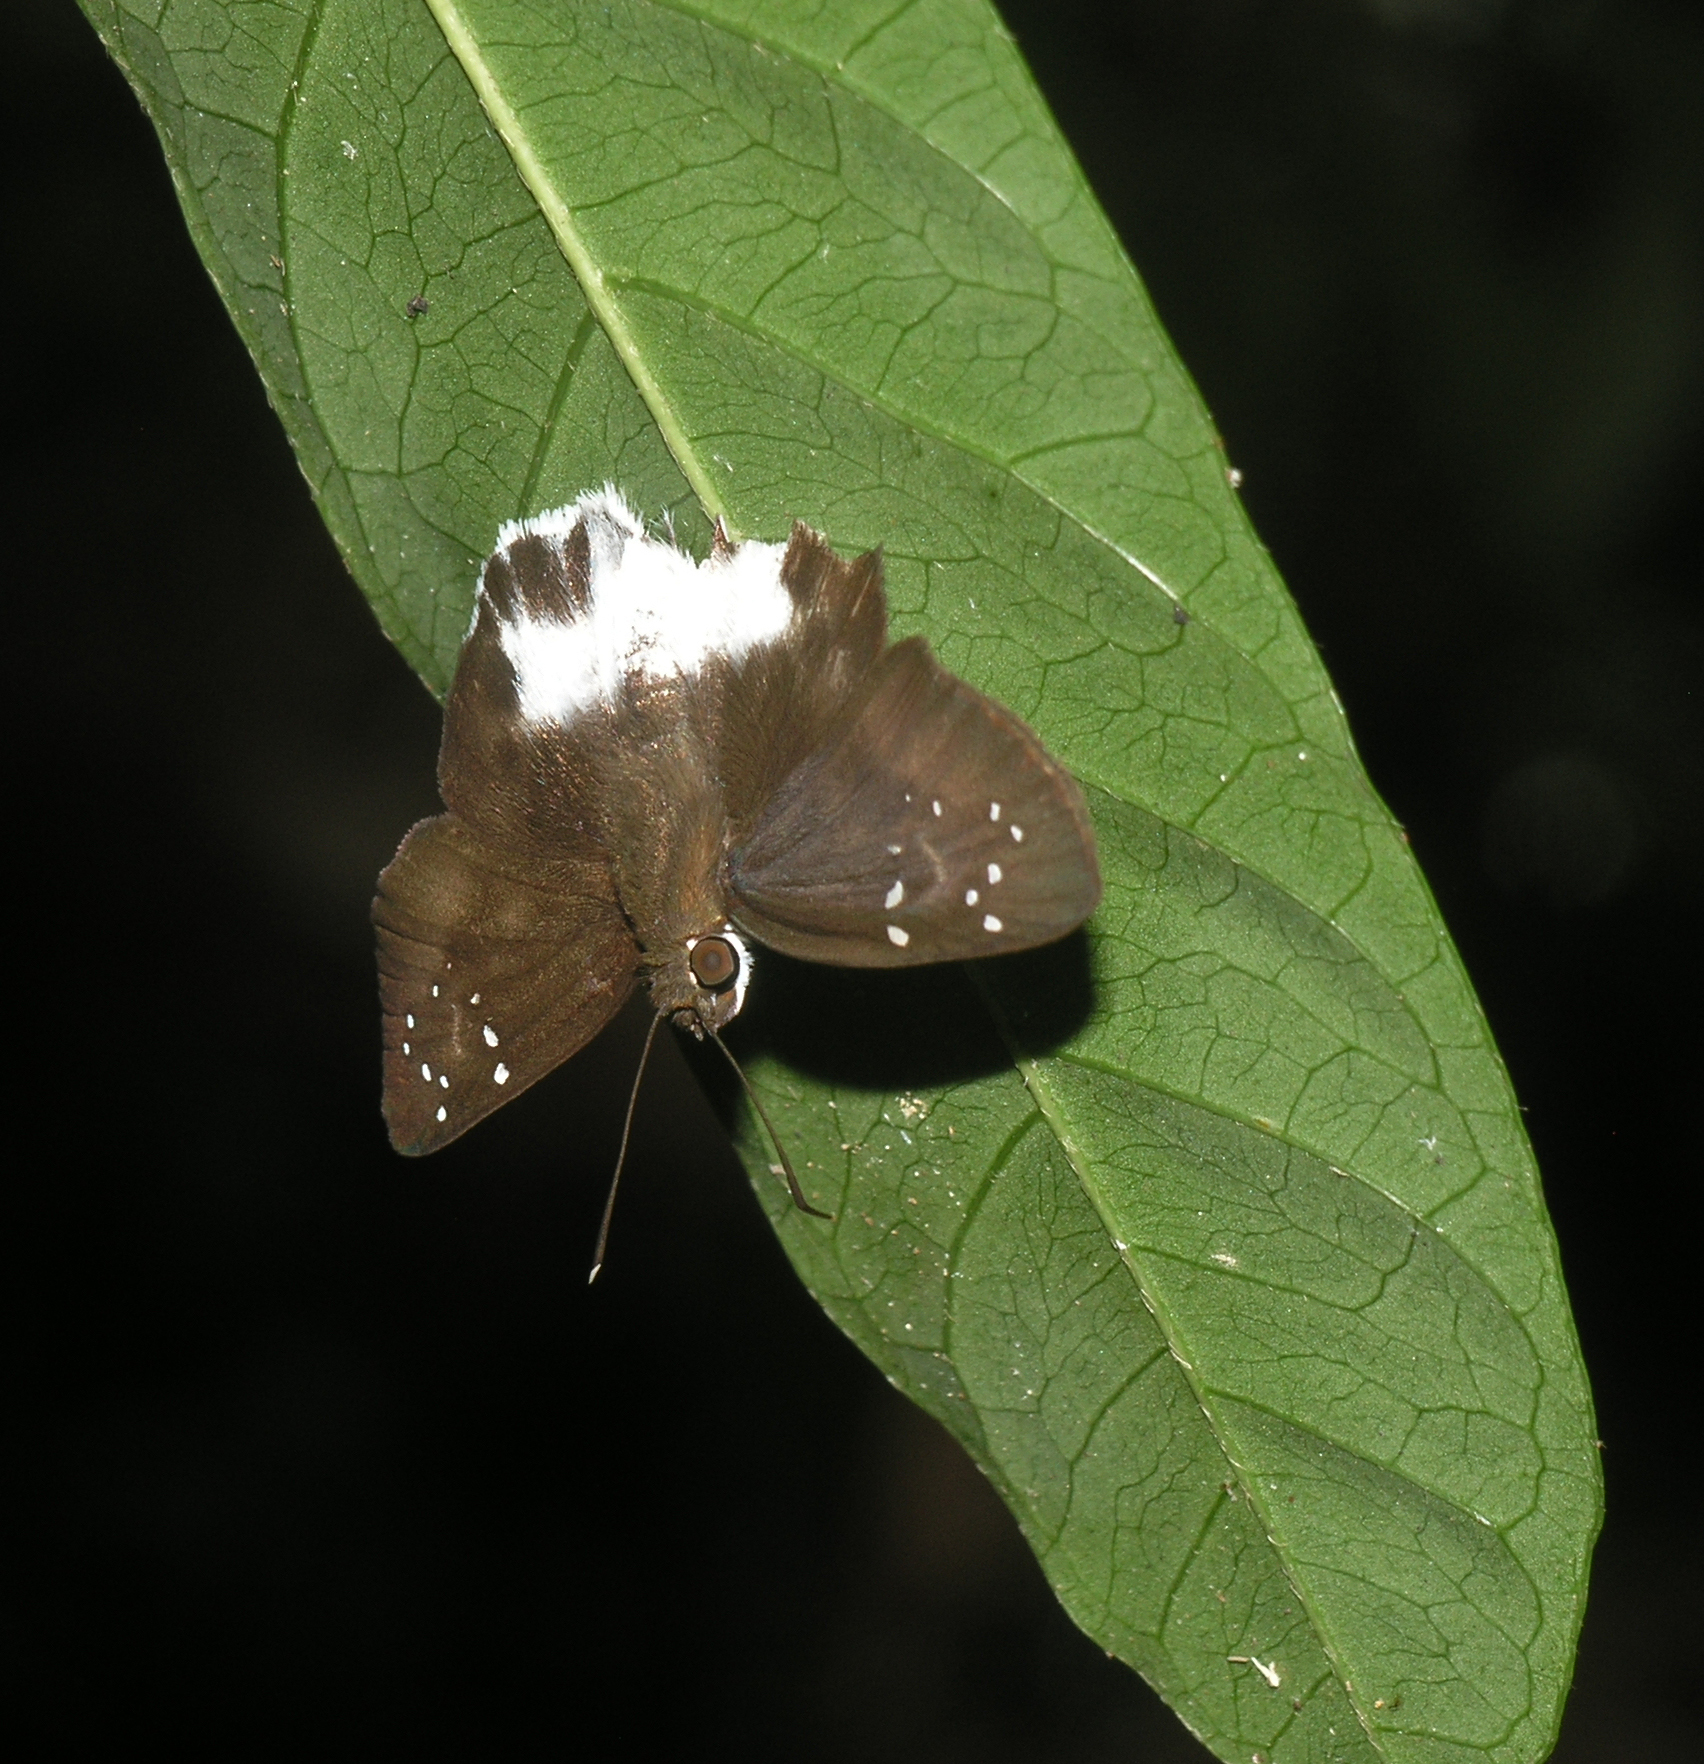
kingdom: Animalia
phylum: Arthropoda
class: Insecta
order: Lepidoptera
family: Hesperiidae
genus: Tagiades
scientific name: Tagiades litigiosa
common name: Water snow flat
